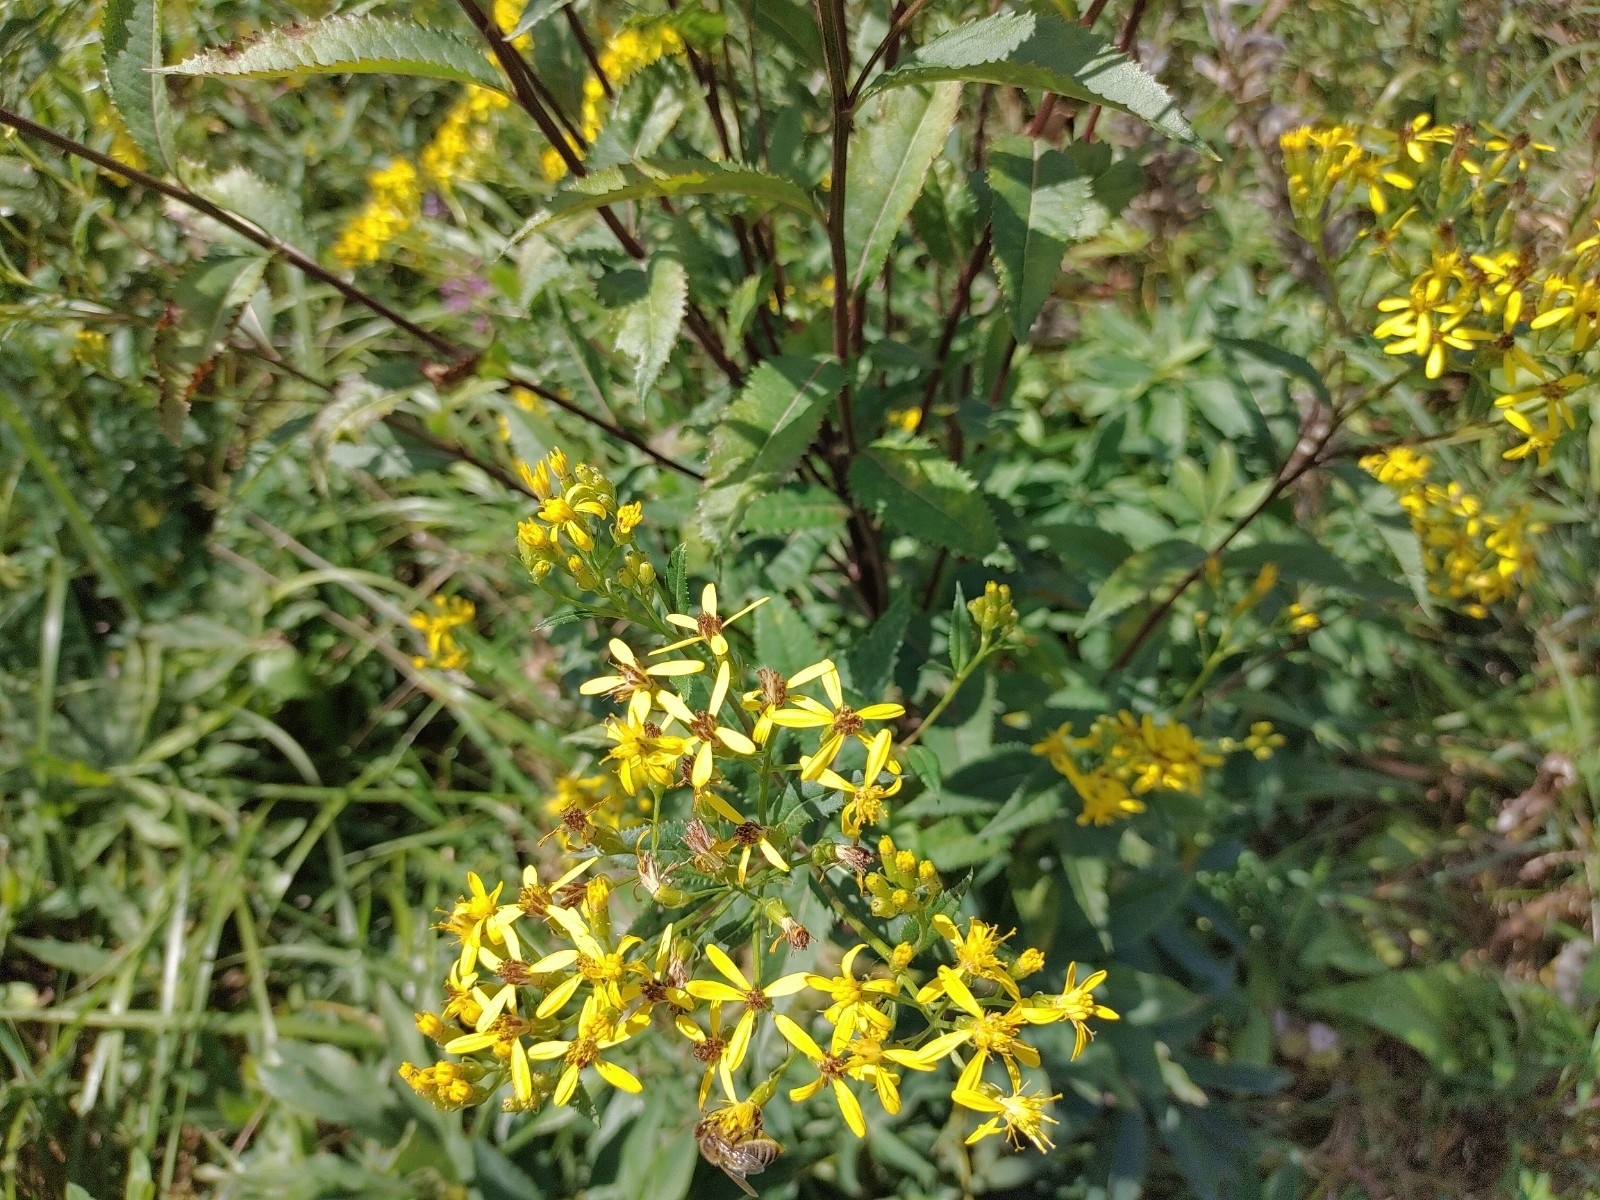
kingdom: Plantae
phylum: Tracheophyta
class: Magnoliopsida
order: Asterales
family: Asteraceae
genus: Senecio
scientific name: Senecio ovatus
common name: Wood ragwort
